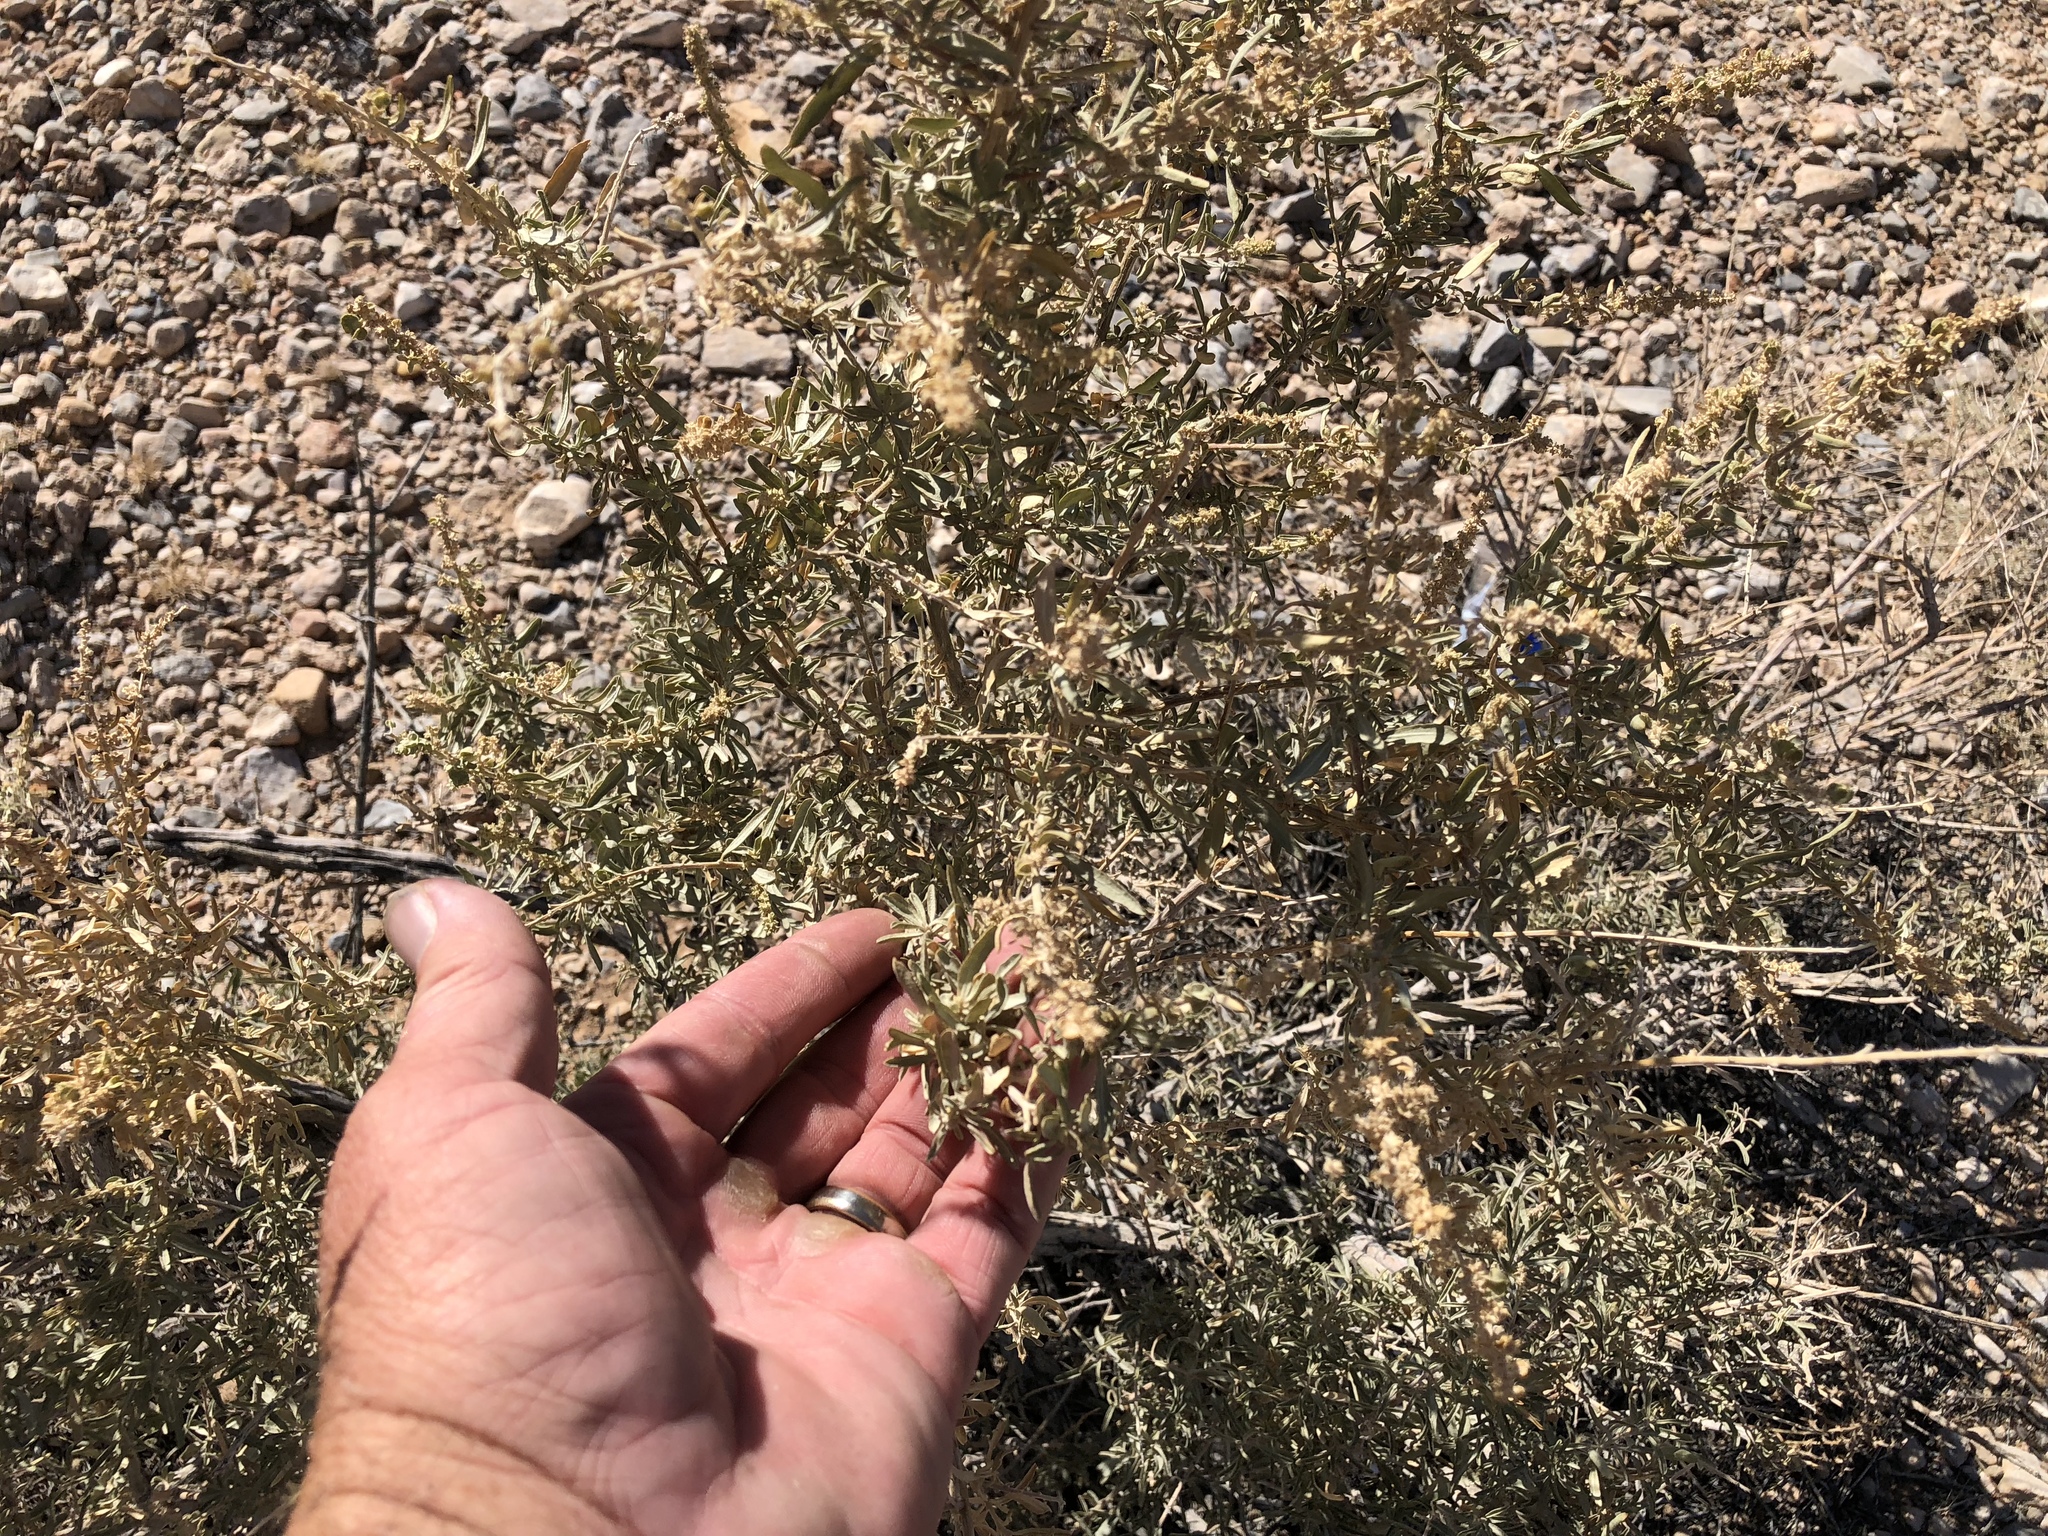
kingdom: Plantae
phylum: Tracheophyta
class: Magnoliopsida
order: Caryophyllales
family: Amaranthaceae
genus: Atriplex
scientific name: Atriplex canescens
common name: Four-wing saltbush
